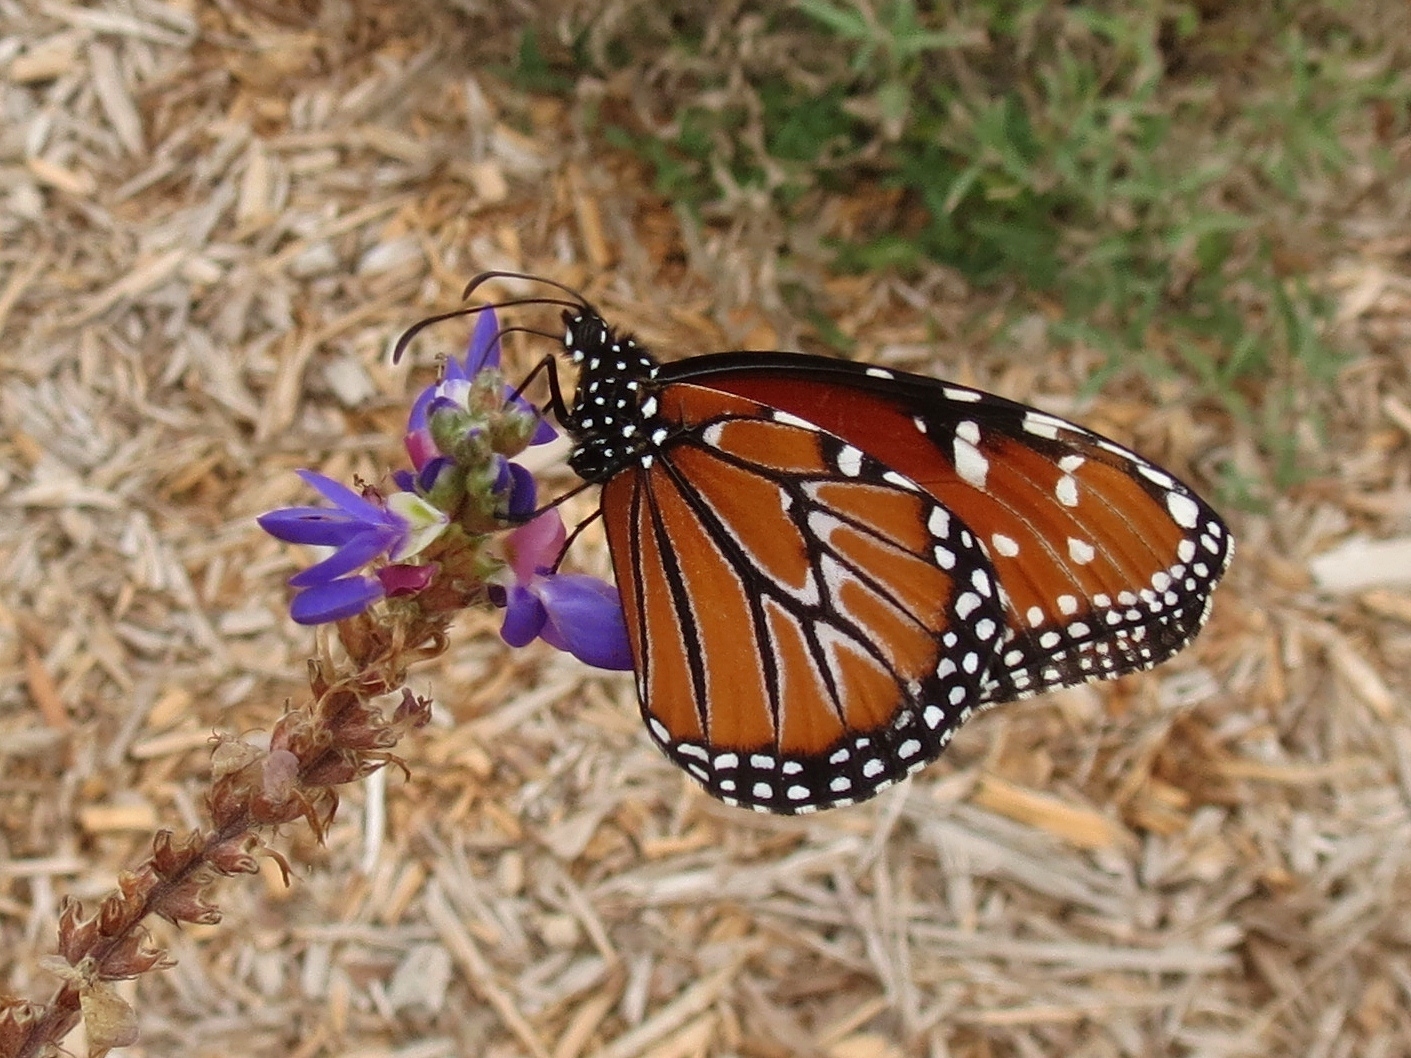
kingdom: Animalia
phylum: Arthropoda
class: Insecta
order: Lepidoptera
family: Nymphalidae
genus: Danaus
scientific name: Danaus gilippus
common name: Queen
